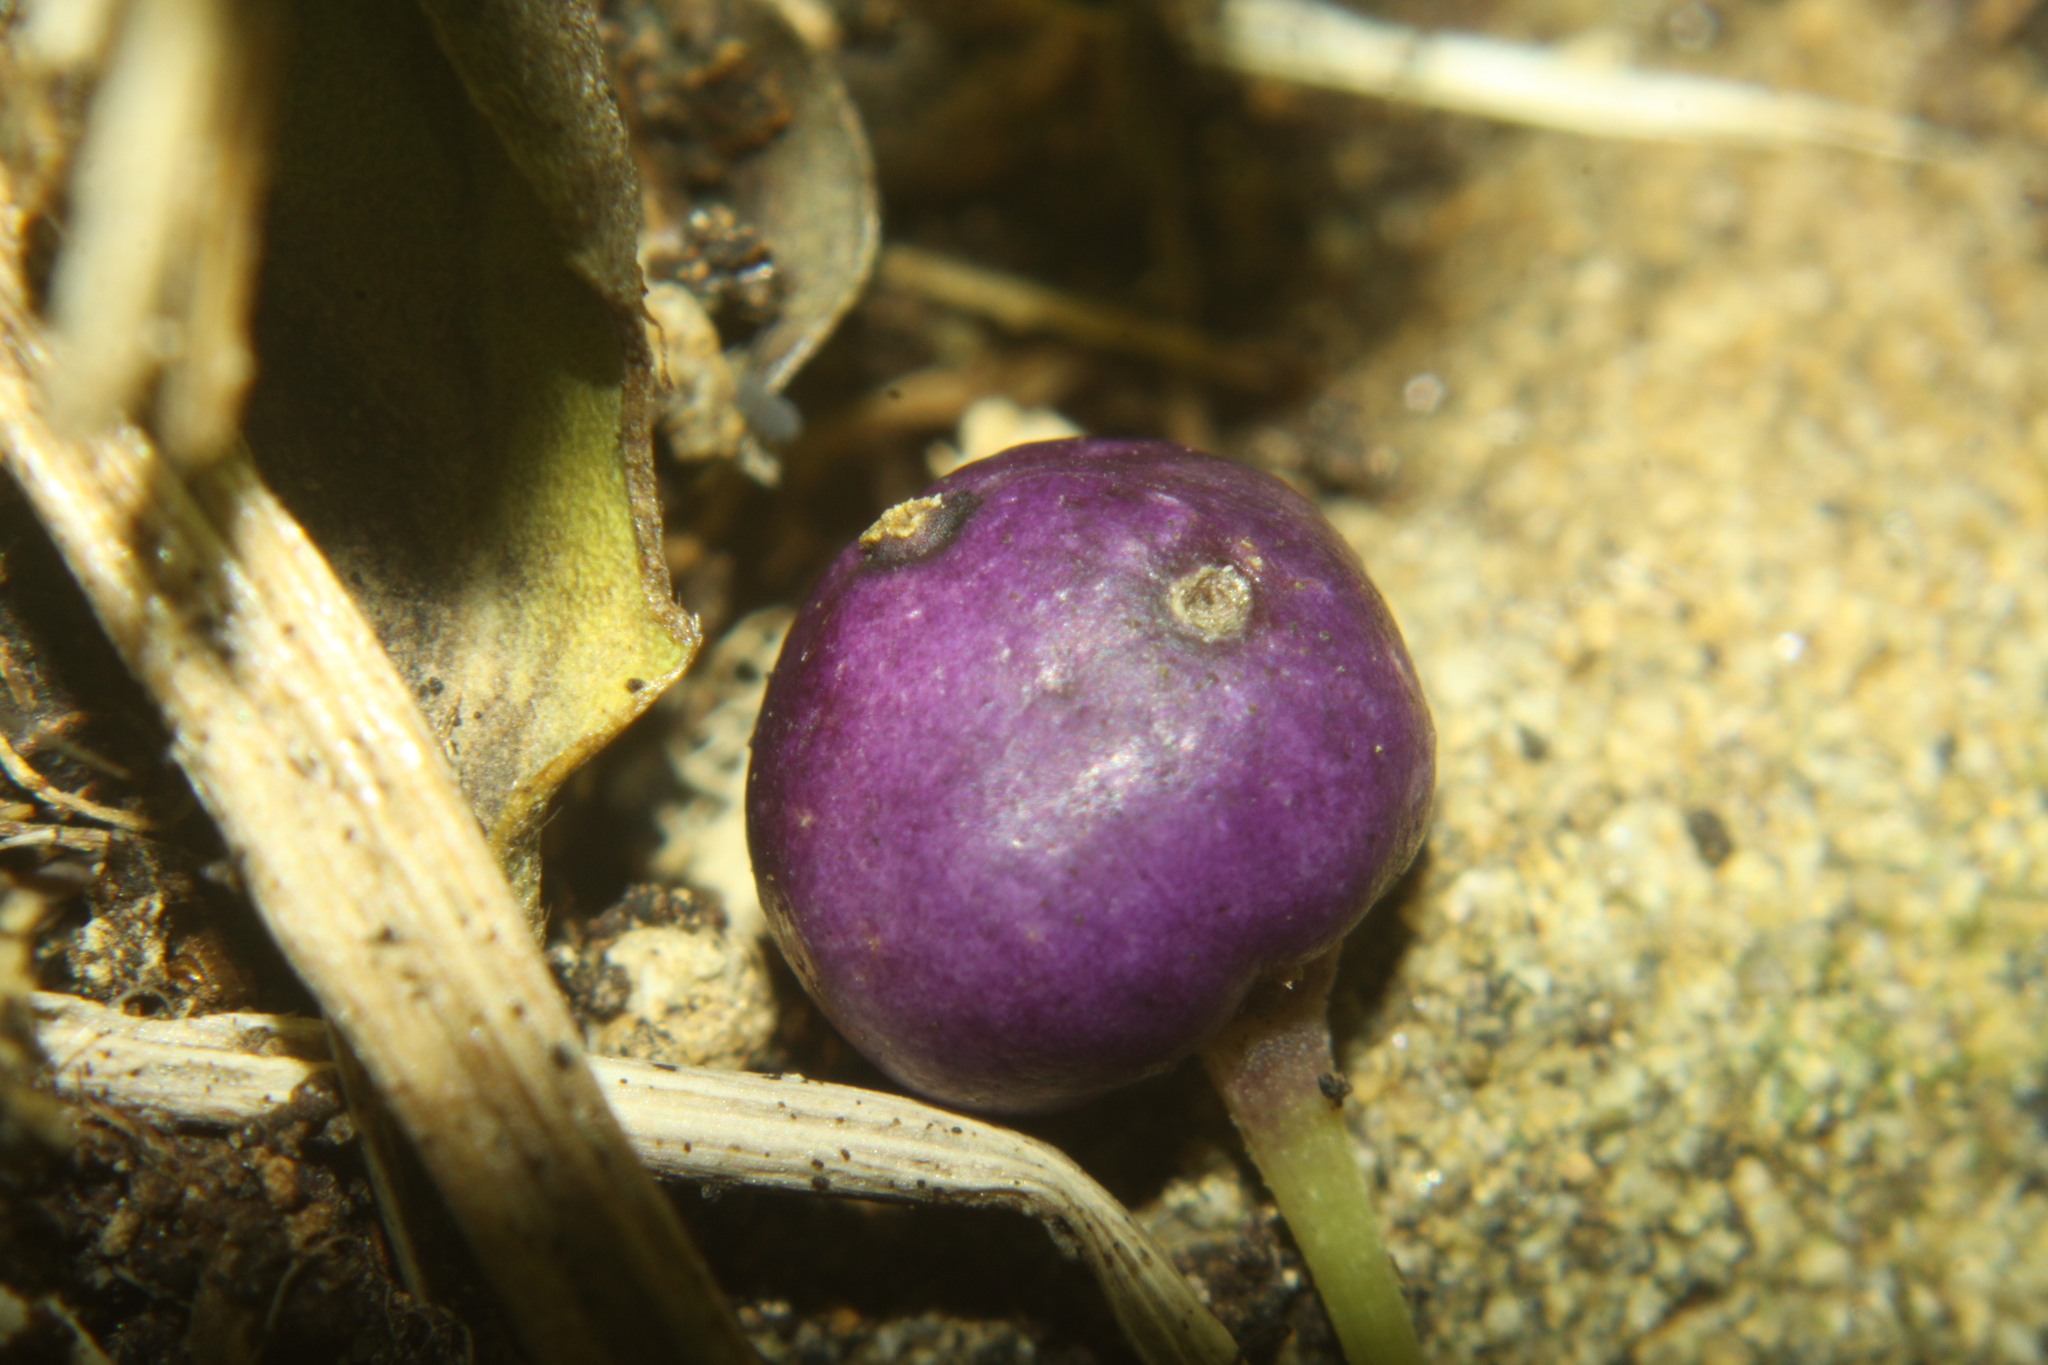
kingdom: Plantae
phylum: Tracheophyta
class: Magnoliopsida
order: Malpighiales
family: Violaceae
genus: Melicytus
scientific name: Melicytus ramiflorus
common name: Mahoe
